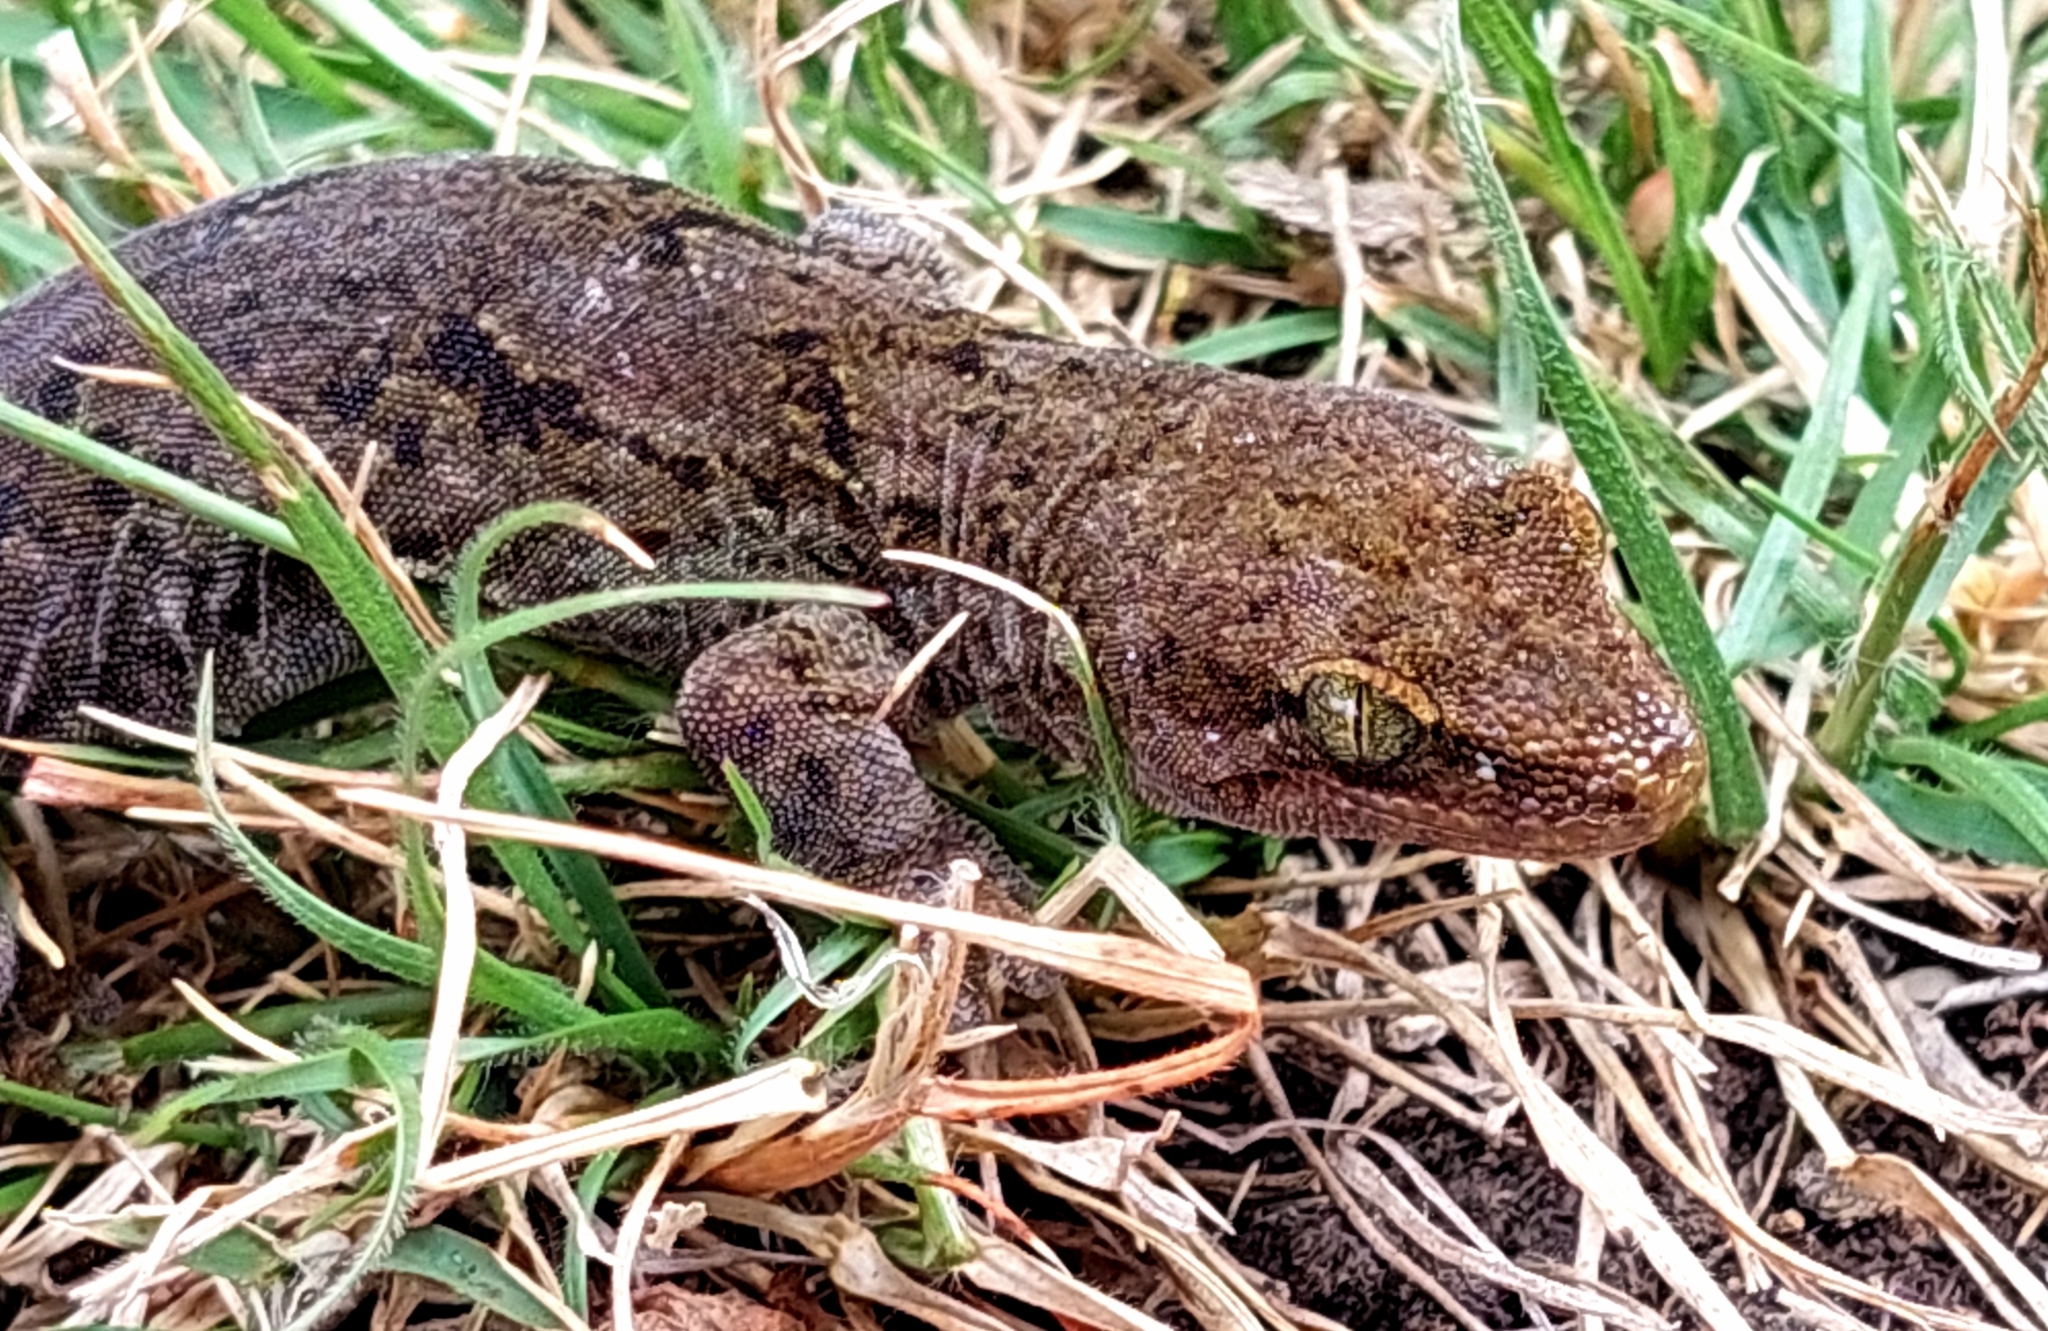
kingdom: Animalia
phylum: Chordata
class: Squamata
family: Diplodactylidae
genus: Woodworthia
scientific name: Woodworthia brunnea
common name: Canterbury gecko
